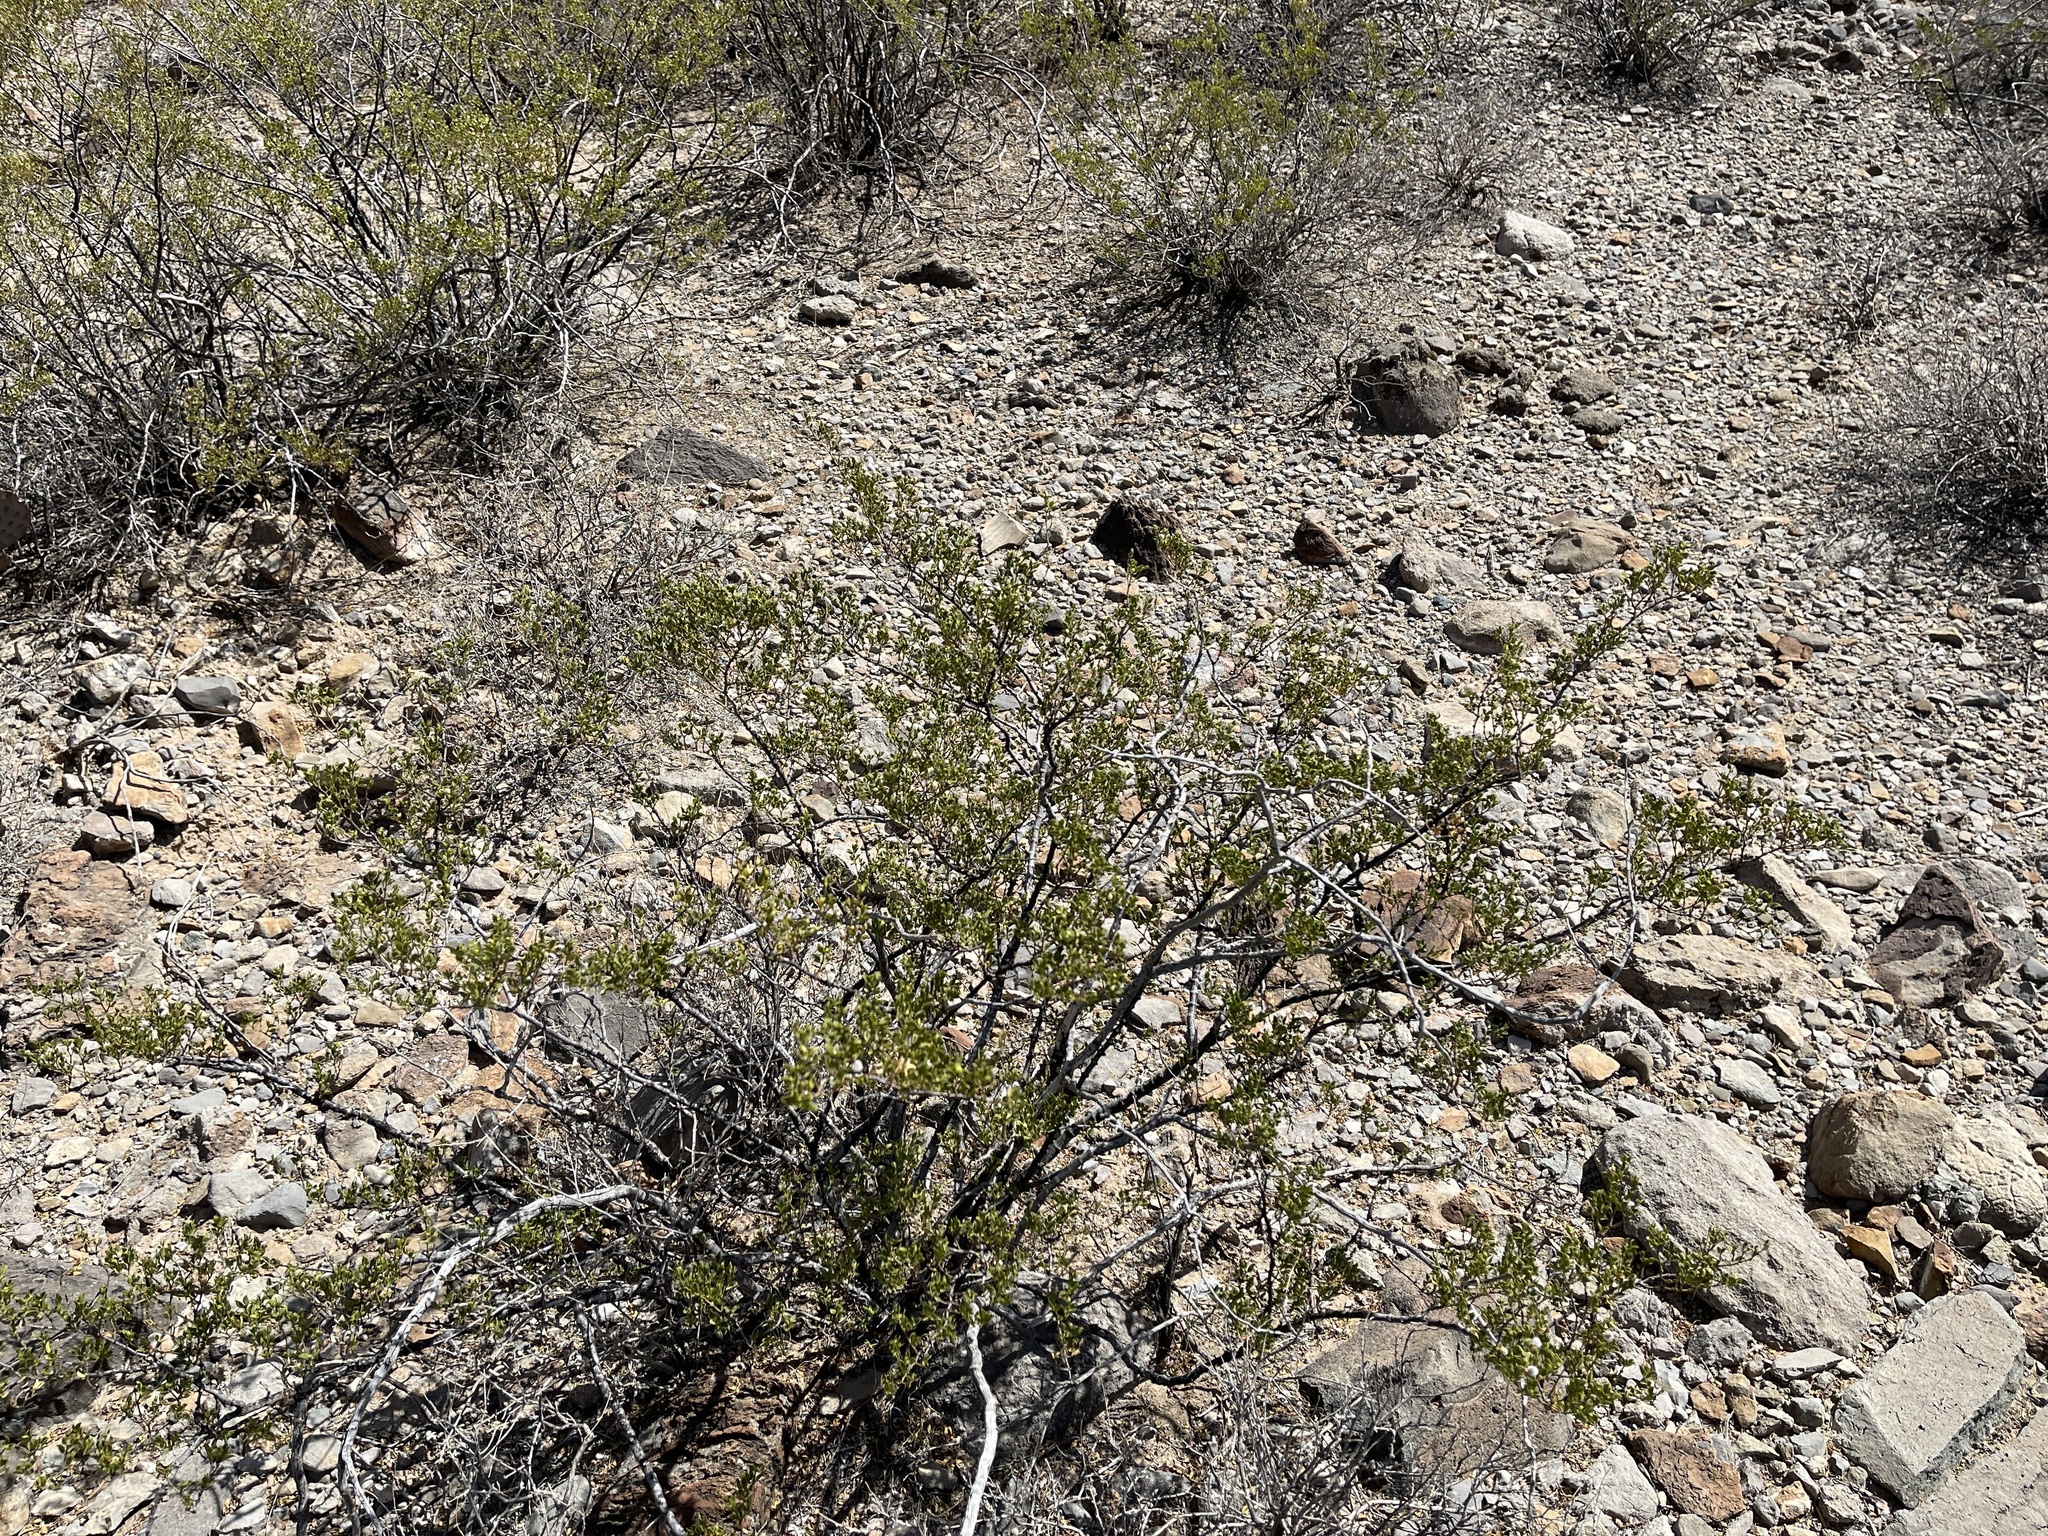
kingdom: Plantae
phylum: Tracheophyta
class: Magnoliopsida
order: Zygophyllales
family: Zygophyllaceae
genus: Larrea
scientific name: Larrea tridentata
